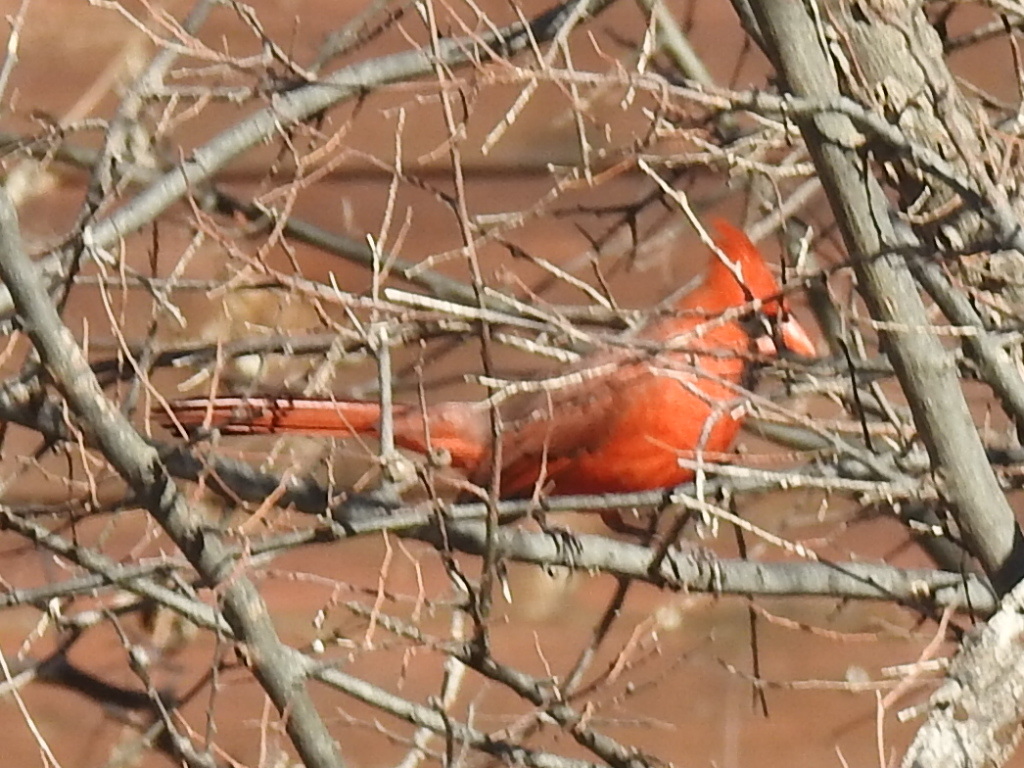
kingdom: Animalia
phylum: Chordata
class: Aves
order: Passeriformes
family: Cardinalidae
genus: Cardinalis
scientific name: Cardinalis cardinalis
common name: Northern cardinal
